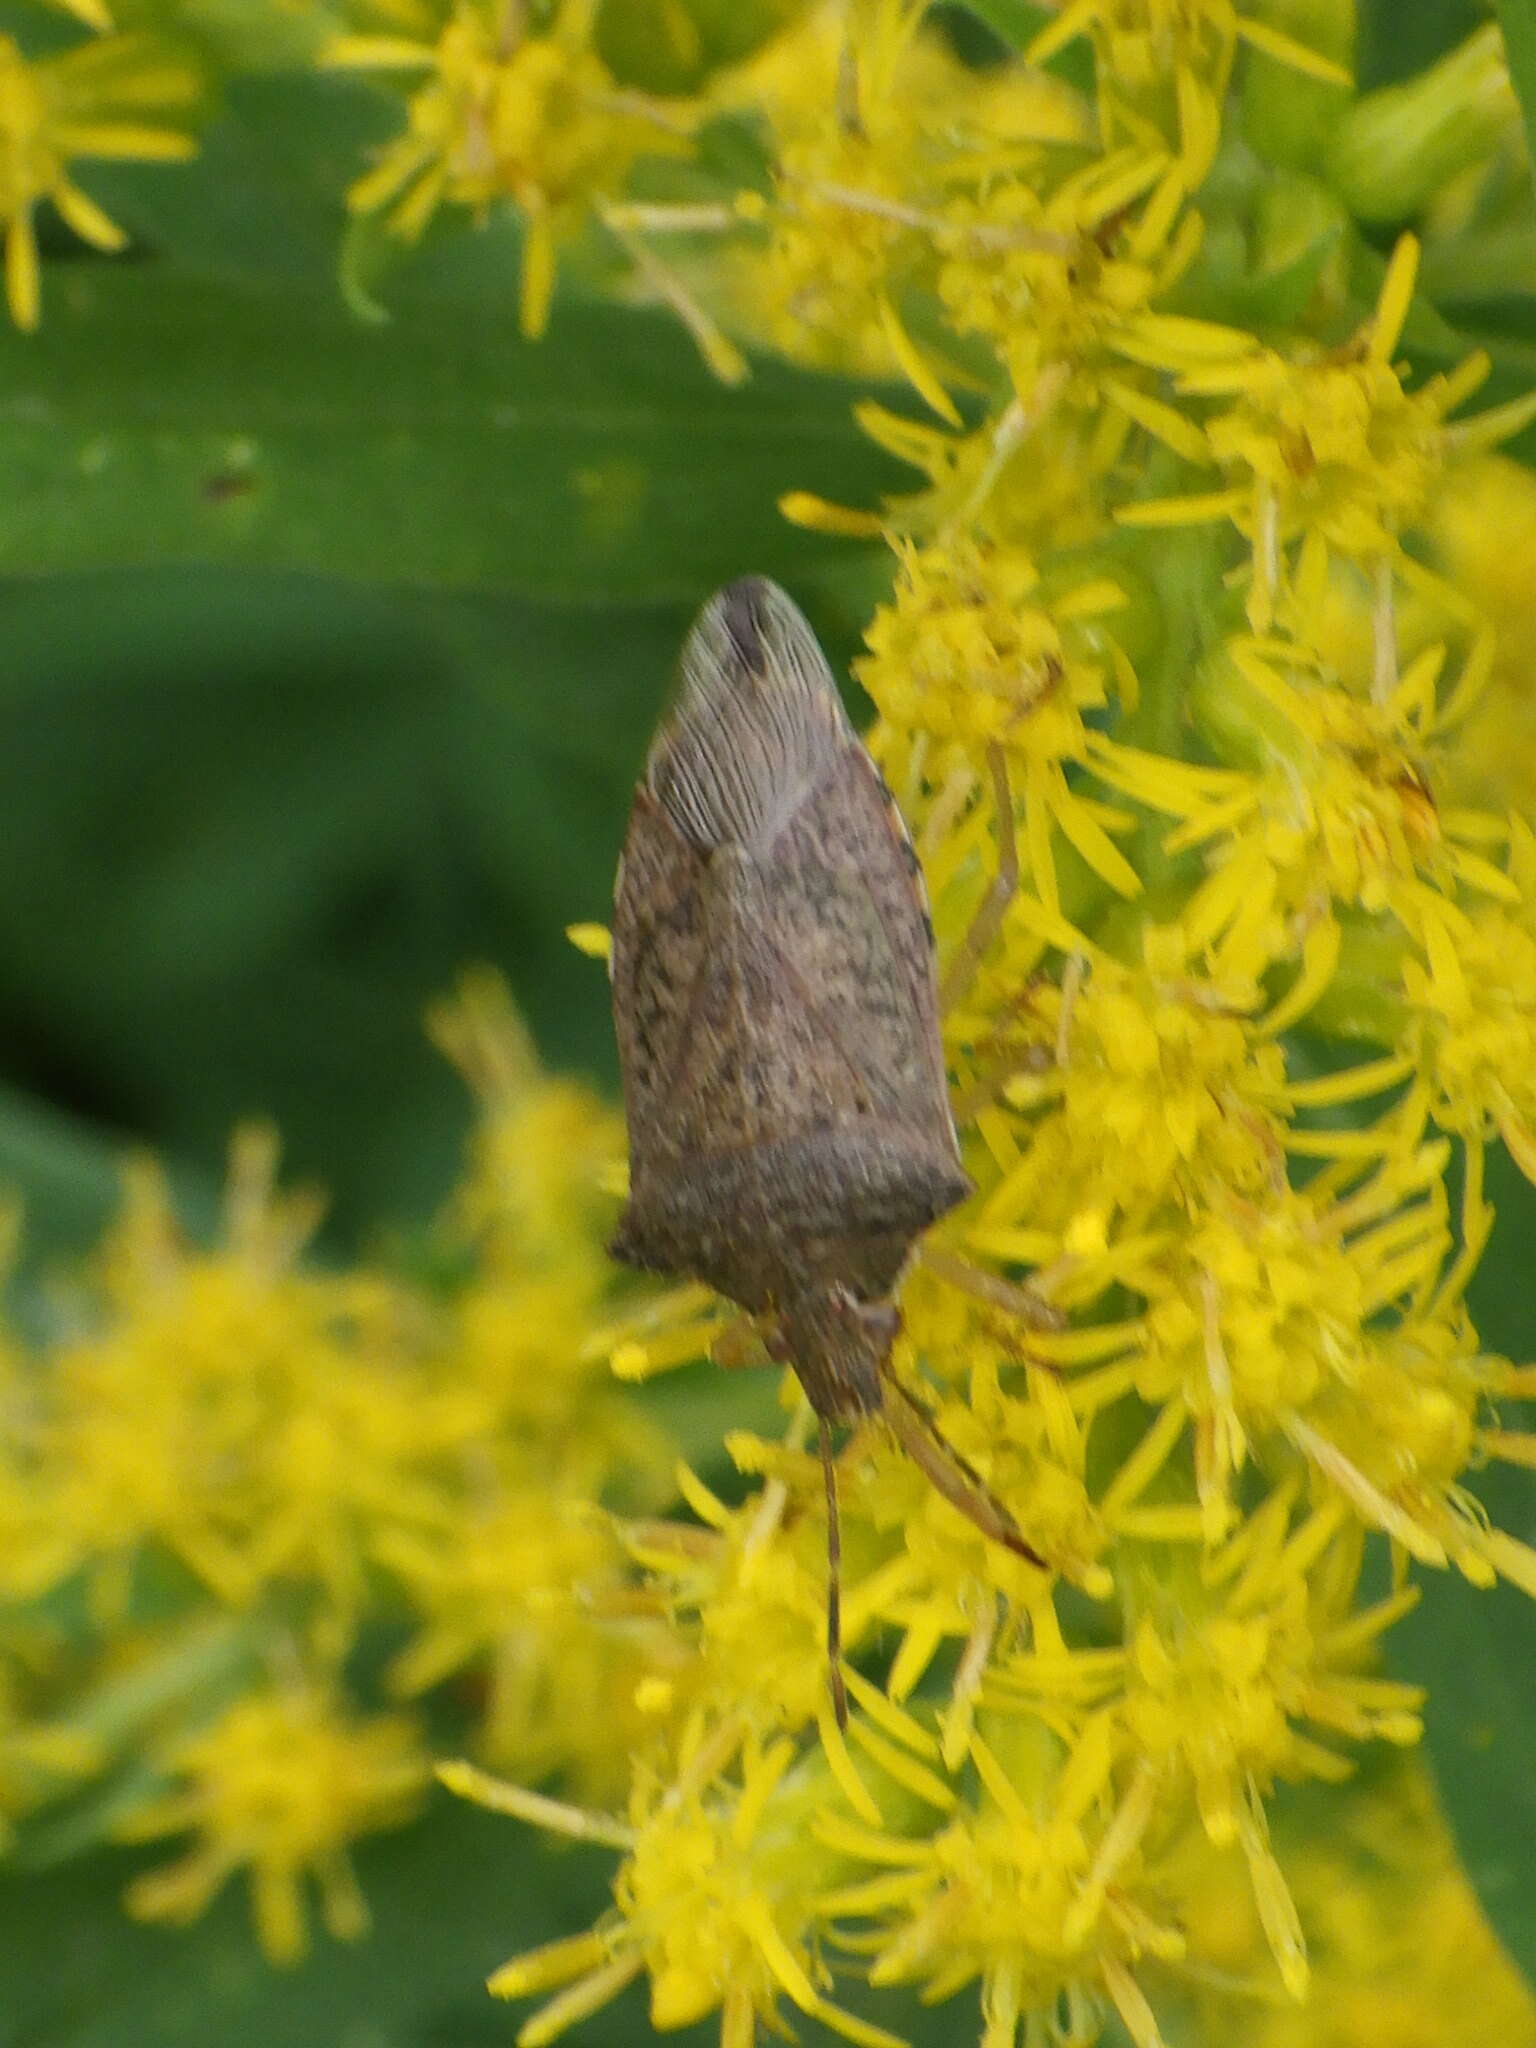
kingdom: Animalia
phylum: Arthropoda
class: Insecta
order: Hemiptera
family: Pentatomidae
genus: Podisus
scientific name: Podisus maculiventris
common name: Spined soldier bug
